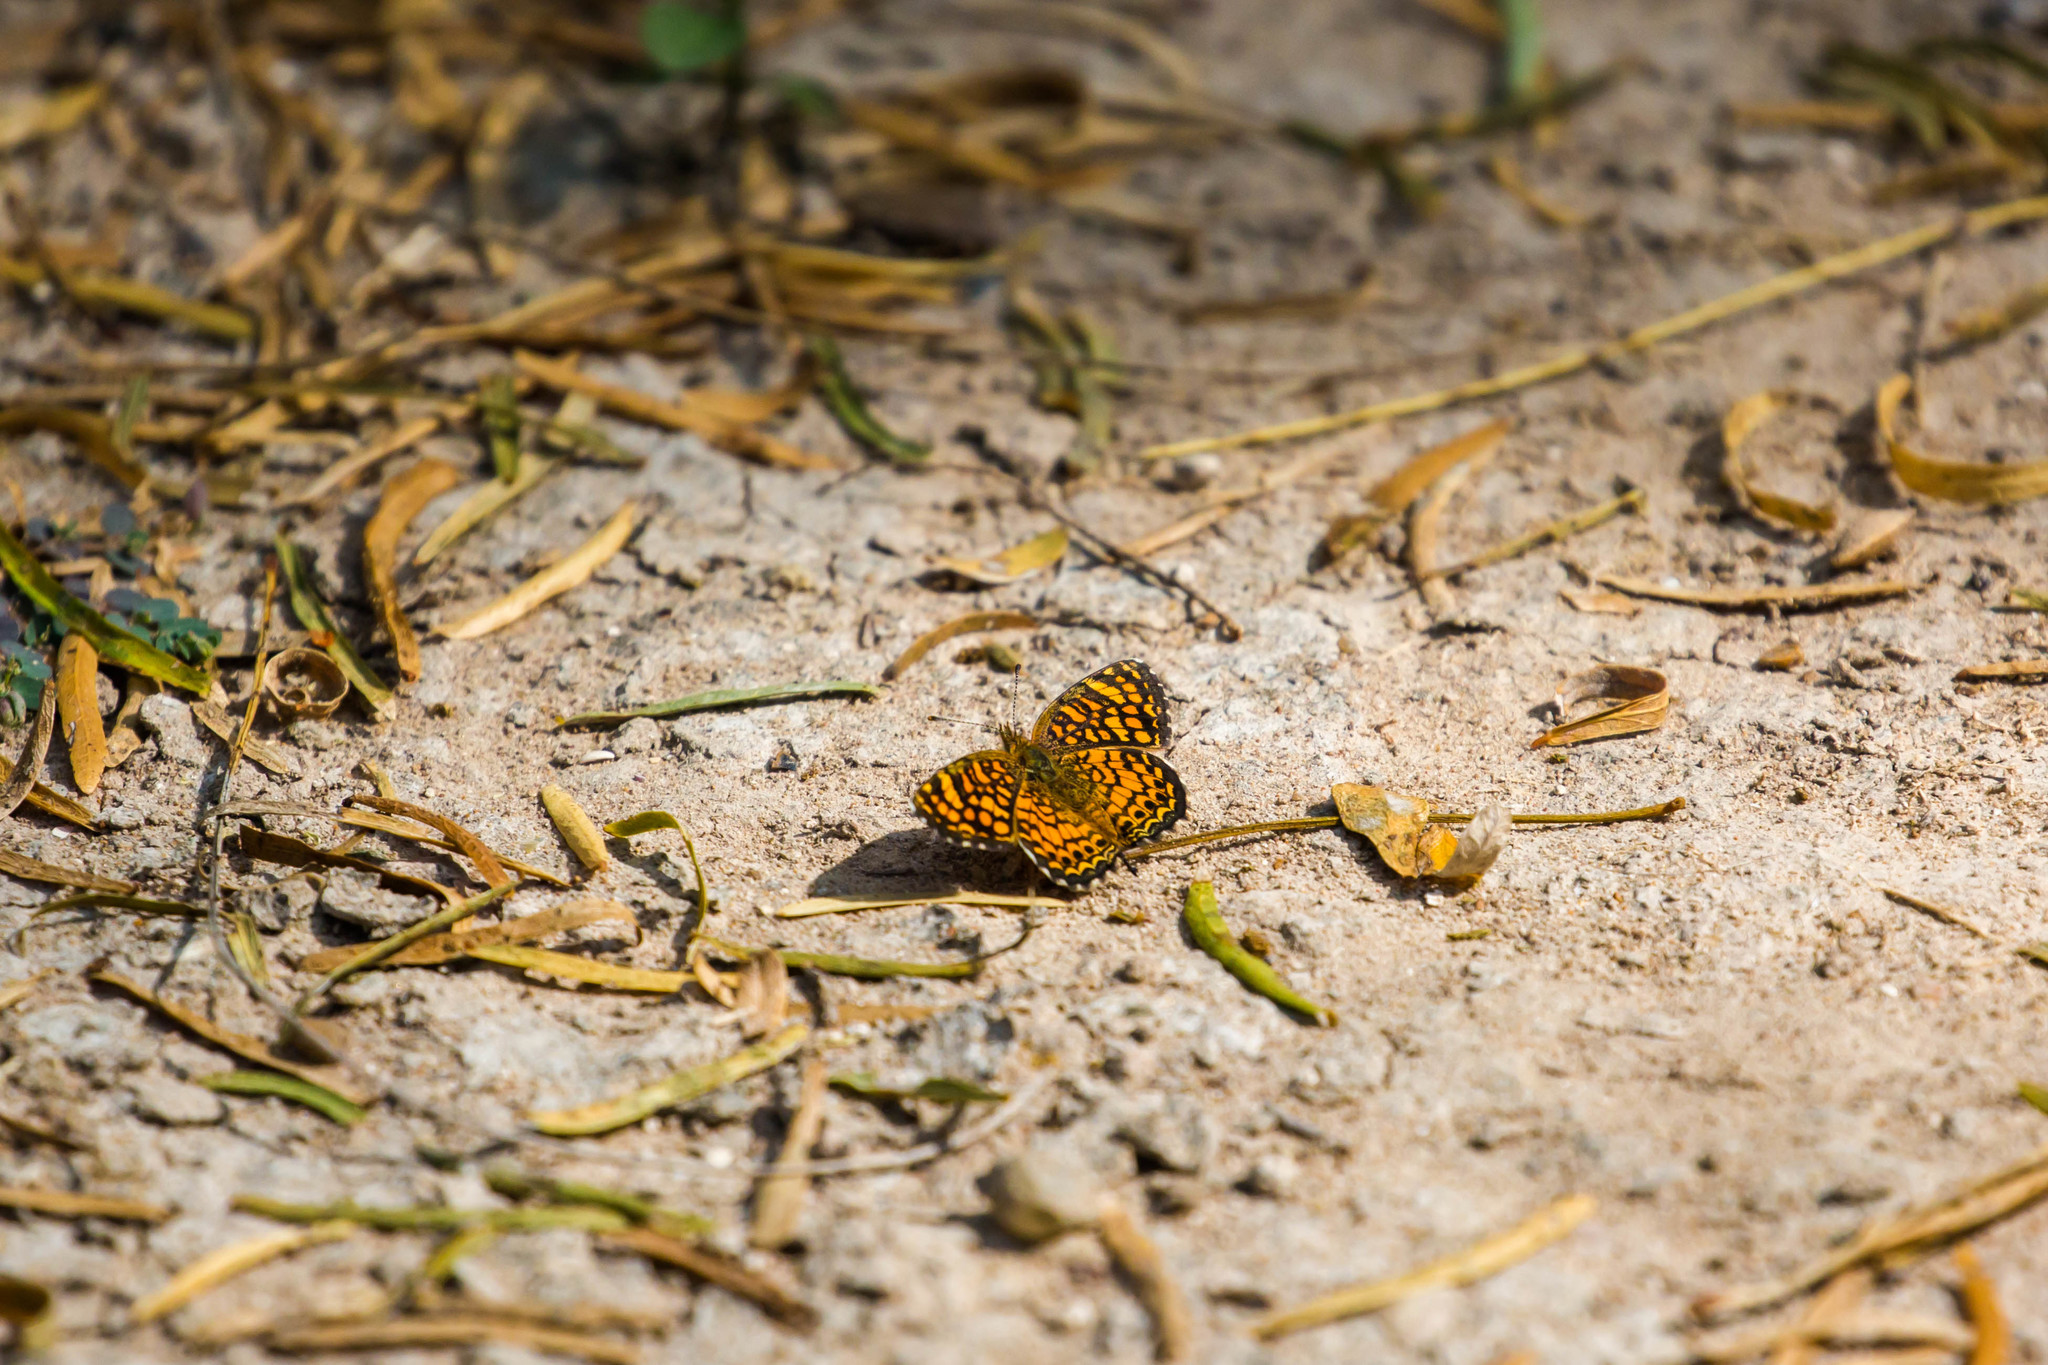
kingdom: Animalia
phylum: Arthropoda
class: Insecta
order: Lepidoptera
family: Nymphalidae
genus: Phyciodes
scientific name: Phyciodes vesta
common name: Vesta crescent
